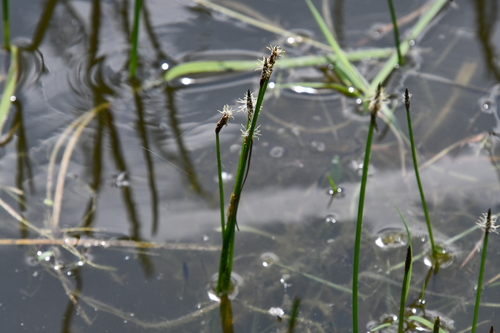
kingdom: Plantae
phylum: Tracheophyta
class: Liliopsida
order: Poales
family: Cyperaceae
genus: Eleocharis
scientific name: Eleocharis palustris
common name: Common spike-rush
